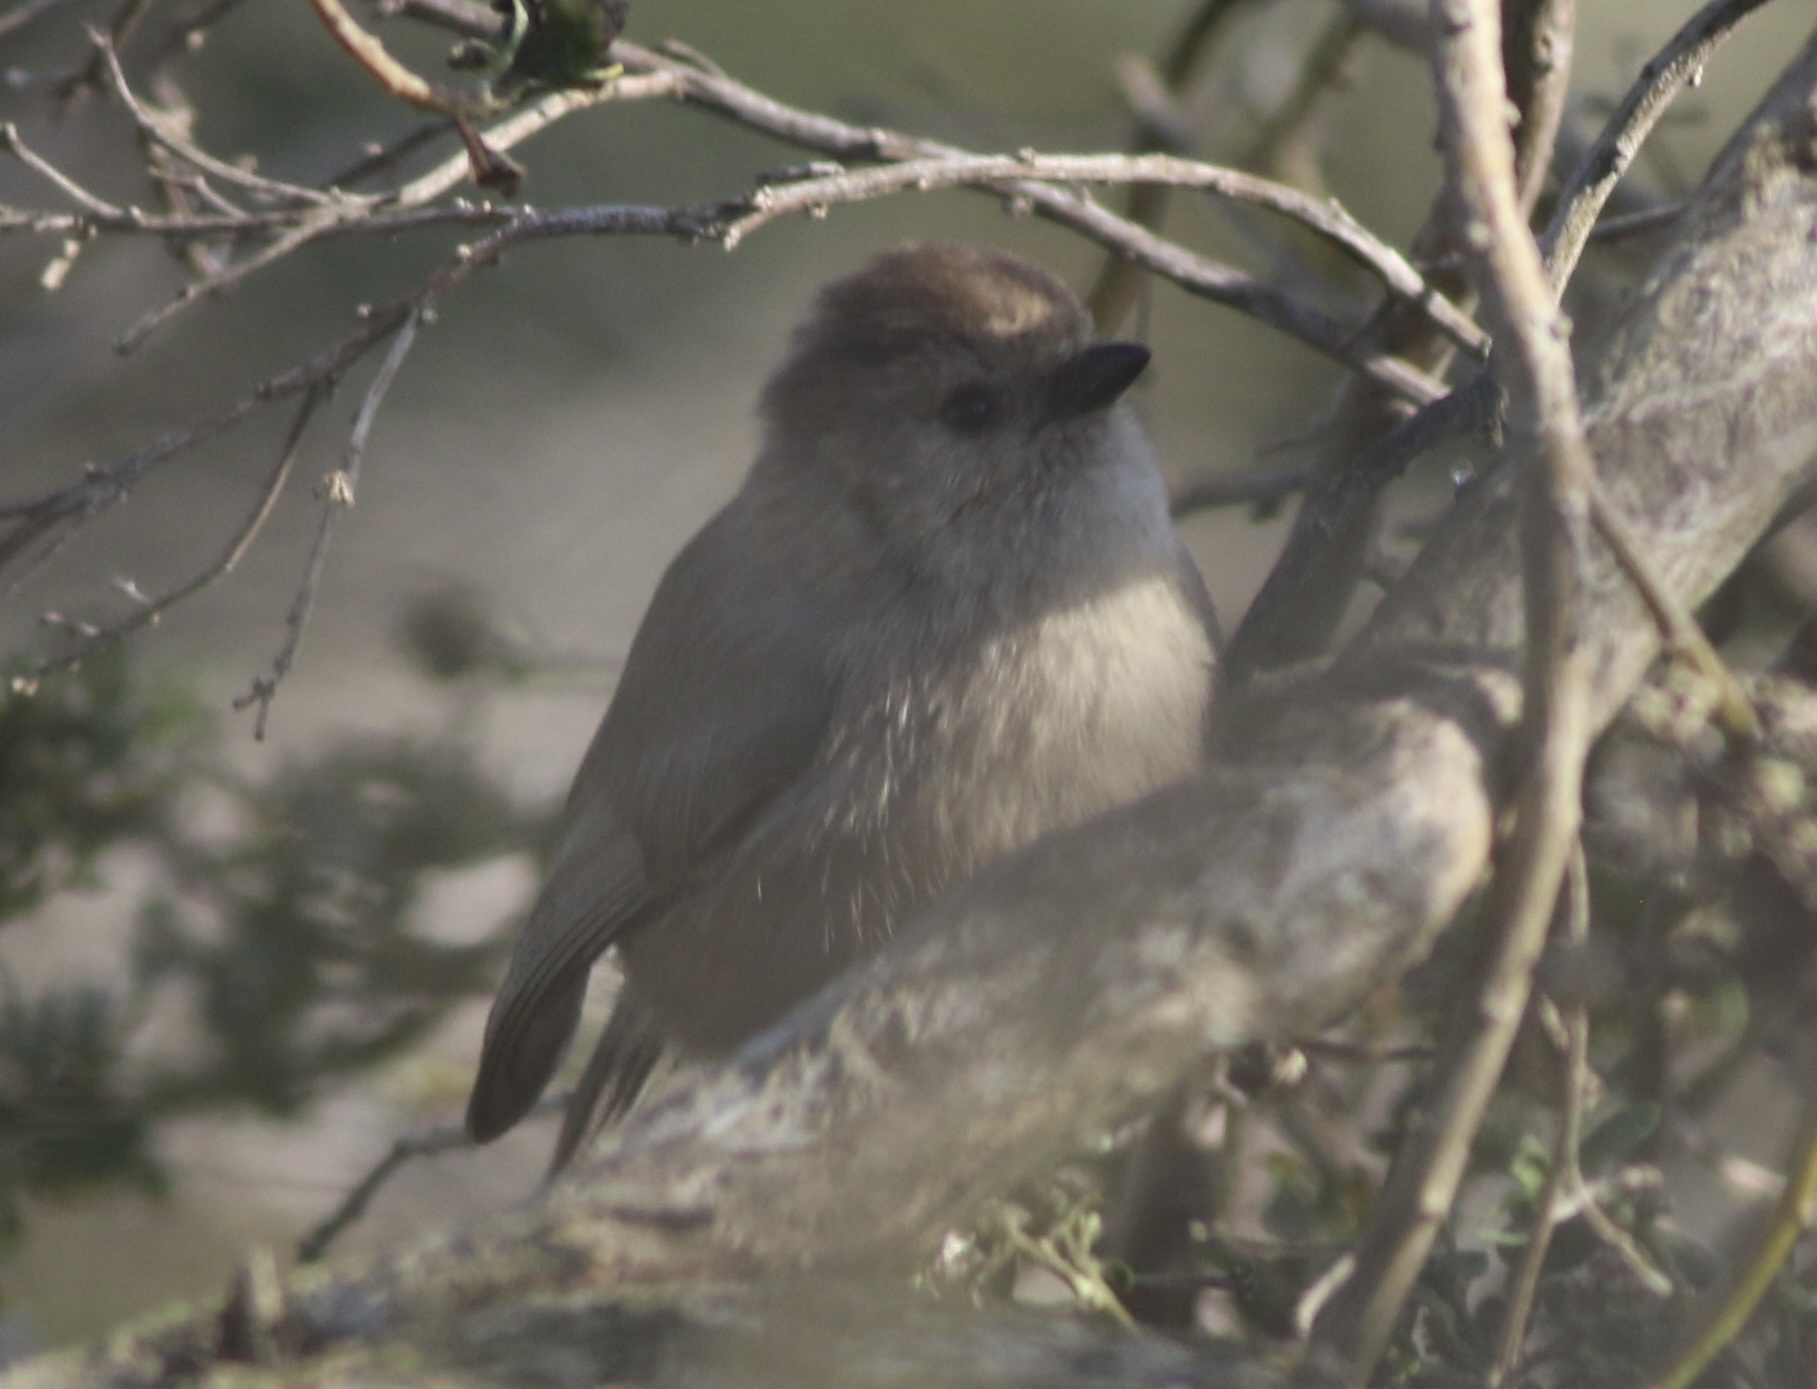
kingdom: Animalia
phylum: Chordata
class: Aves
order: Passeriformes
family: Aegithalidae
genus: Psaltriparus
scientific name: Psaltriparus minimus
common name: American bushtit
